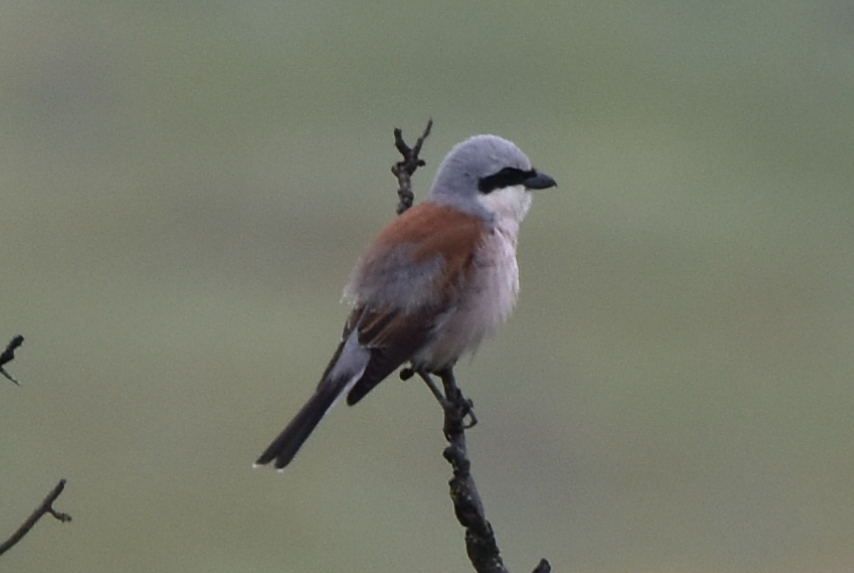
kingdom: Animalia
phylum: Chordata
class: Aves
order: Passeriformes
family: Laniidae
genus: Lanius
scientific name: Lanius collurio
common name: Red-backed shrike
